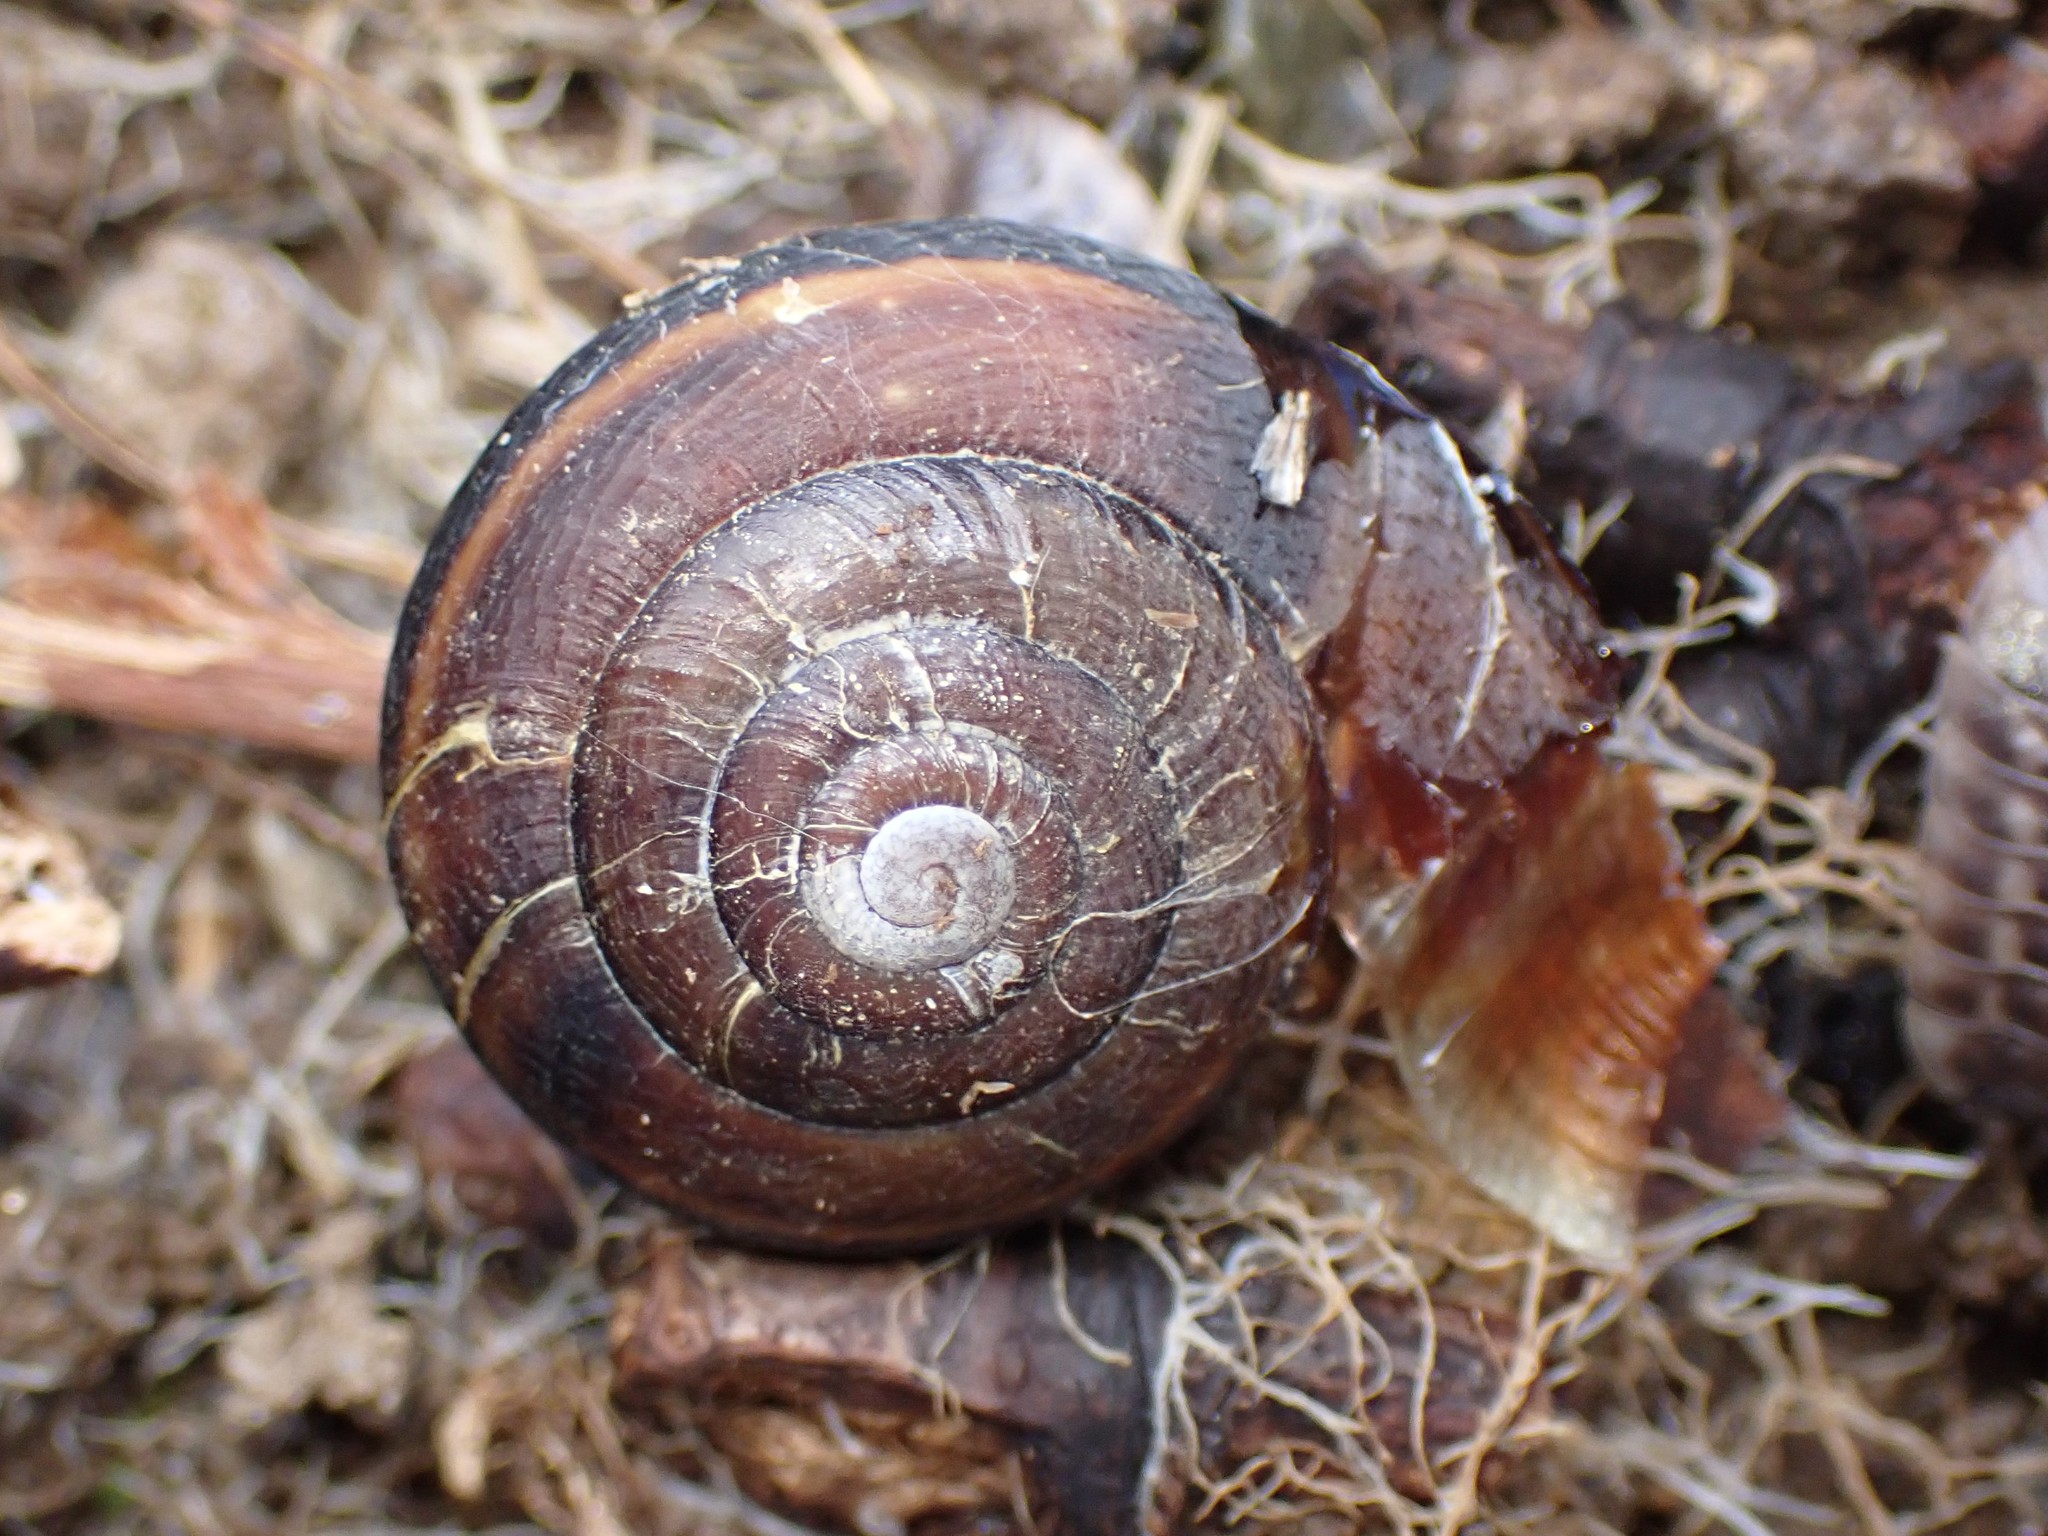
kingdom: Animalia
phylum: Mollusca
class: Gastropoda
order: Stylommatophora
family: Xanthonychidae
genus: Monadenia
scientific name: Monadenia fidelis
